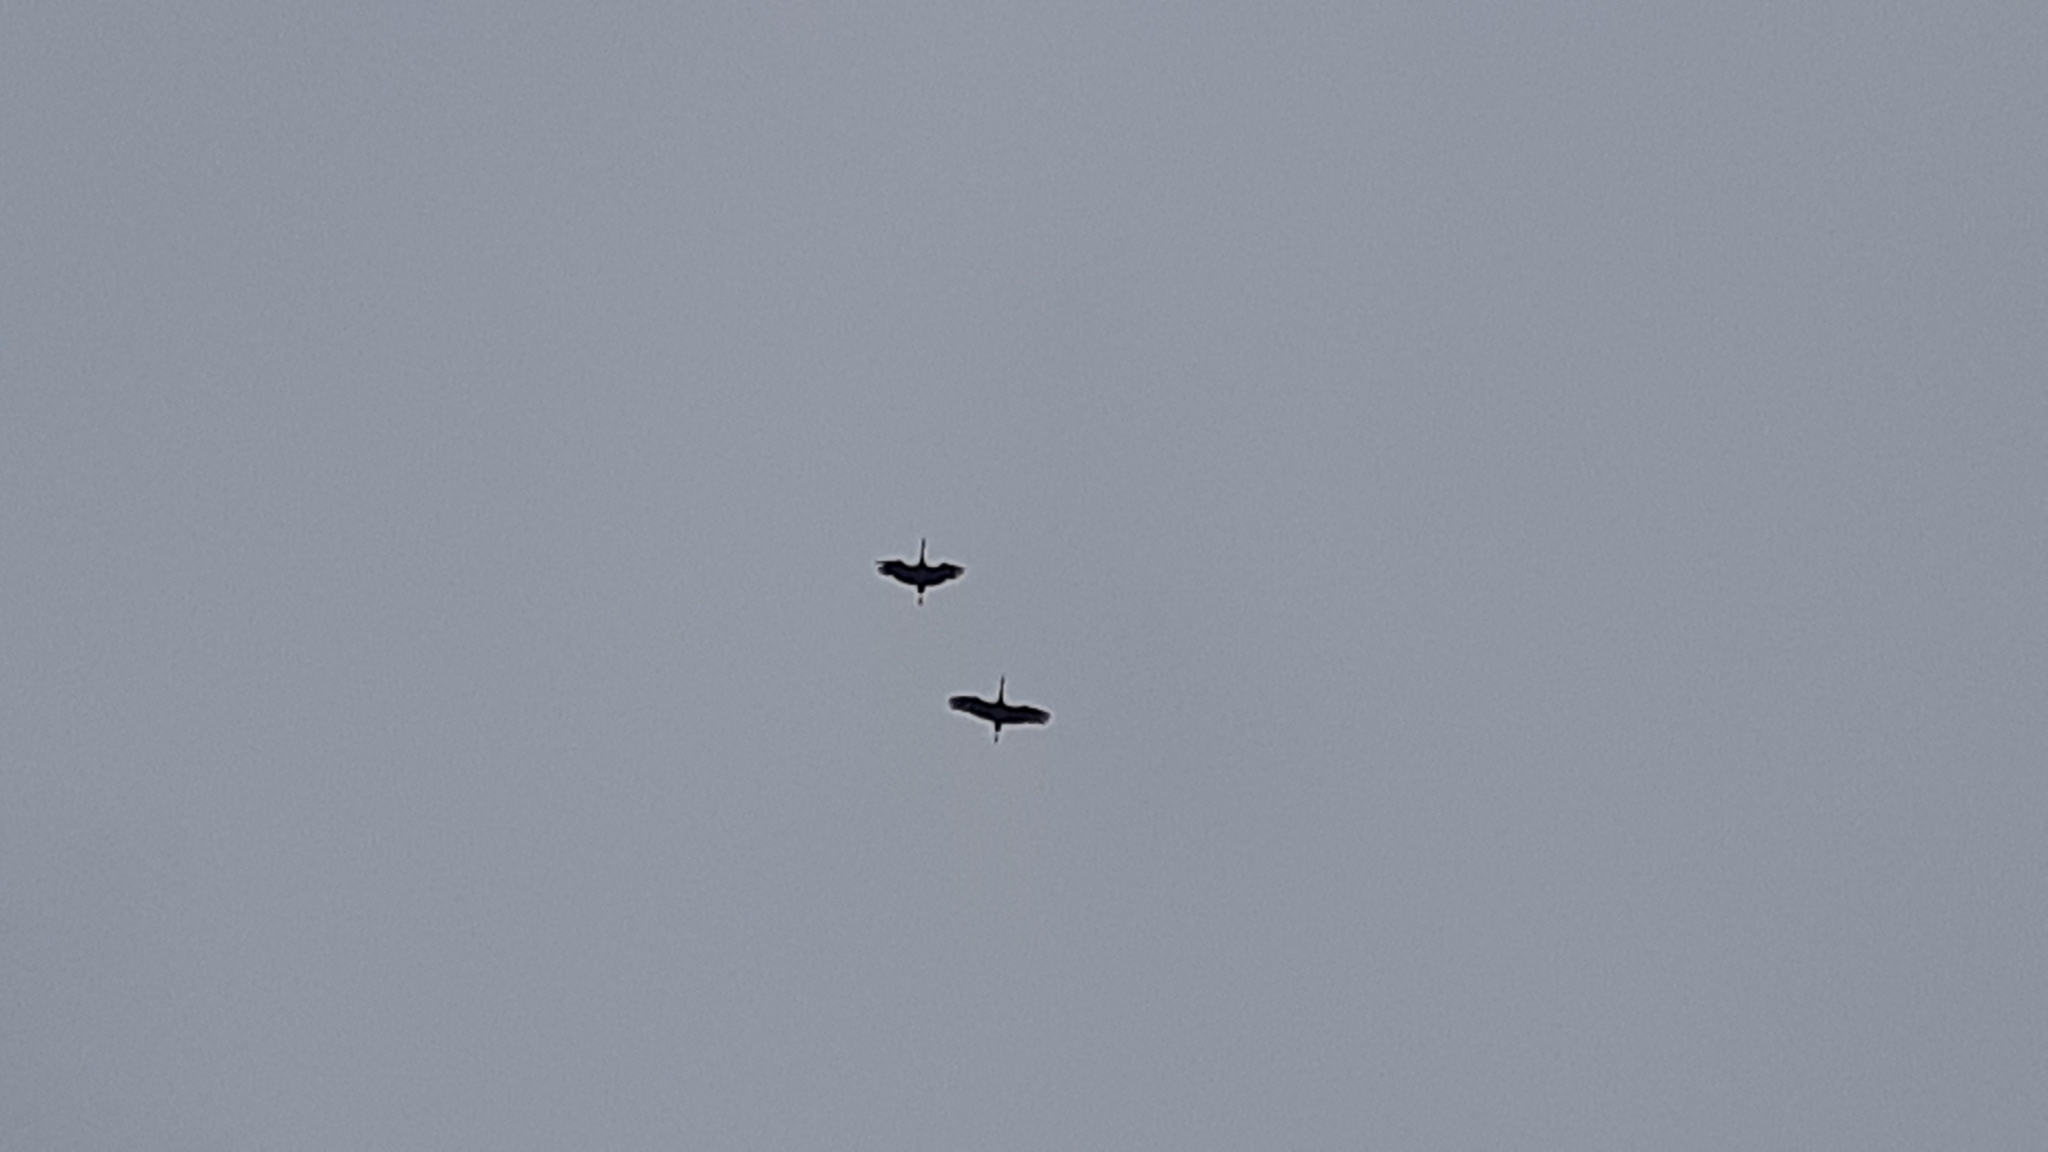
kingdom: Animalia
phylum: Chordata
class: Aves
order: Gruiformes
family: Gruidae
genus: Grus
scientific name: Grus canadensis
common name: Sandhill crane
